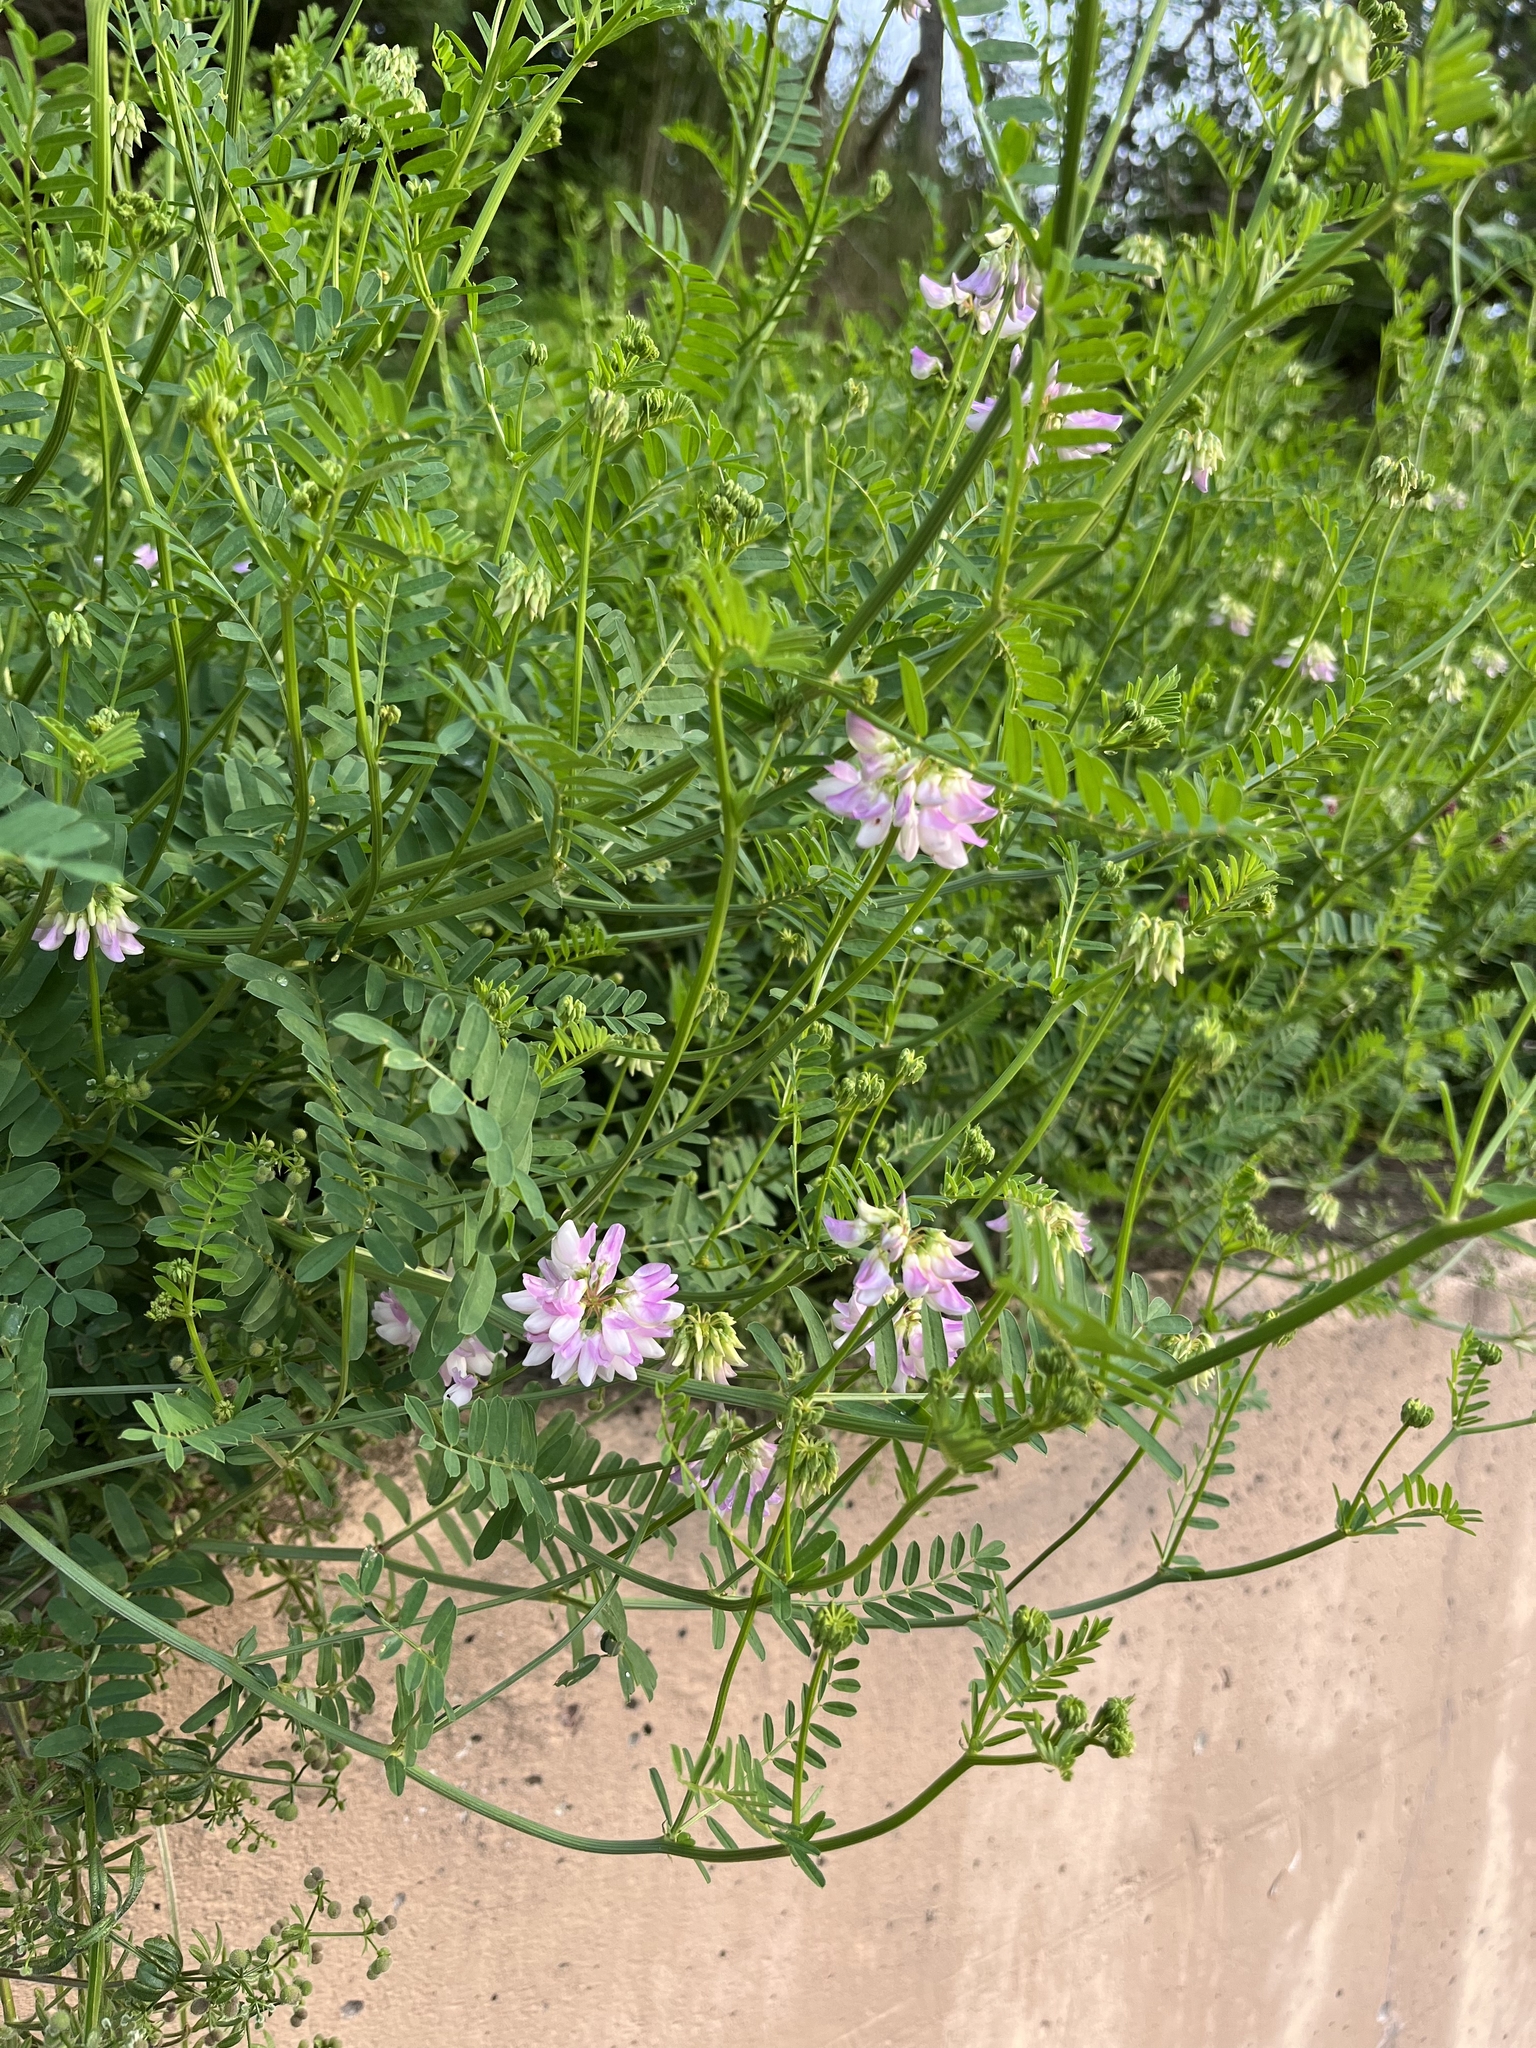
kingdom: Plantae
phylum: Tracheophyta
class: Magnoliopsida
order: Fabales
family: Fabaceae
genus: Coronilla
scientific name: Coronilla varia
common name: Crownvetch
